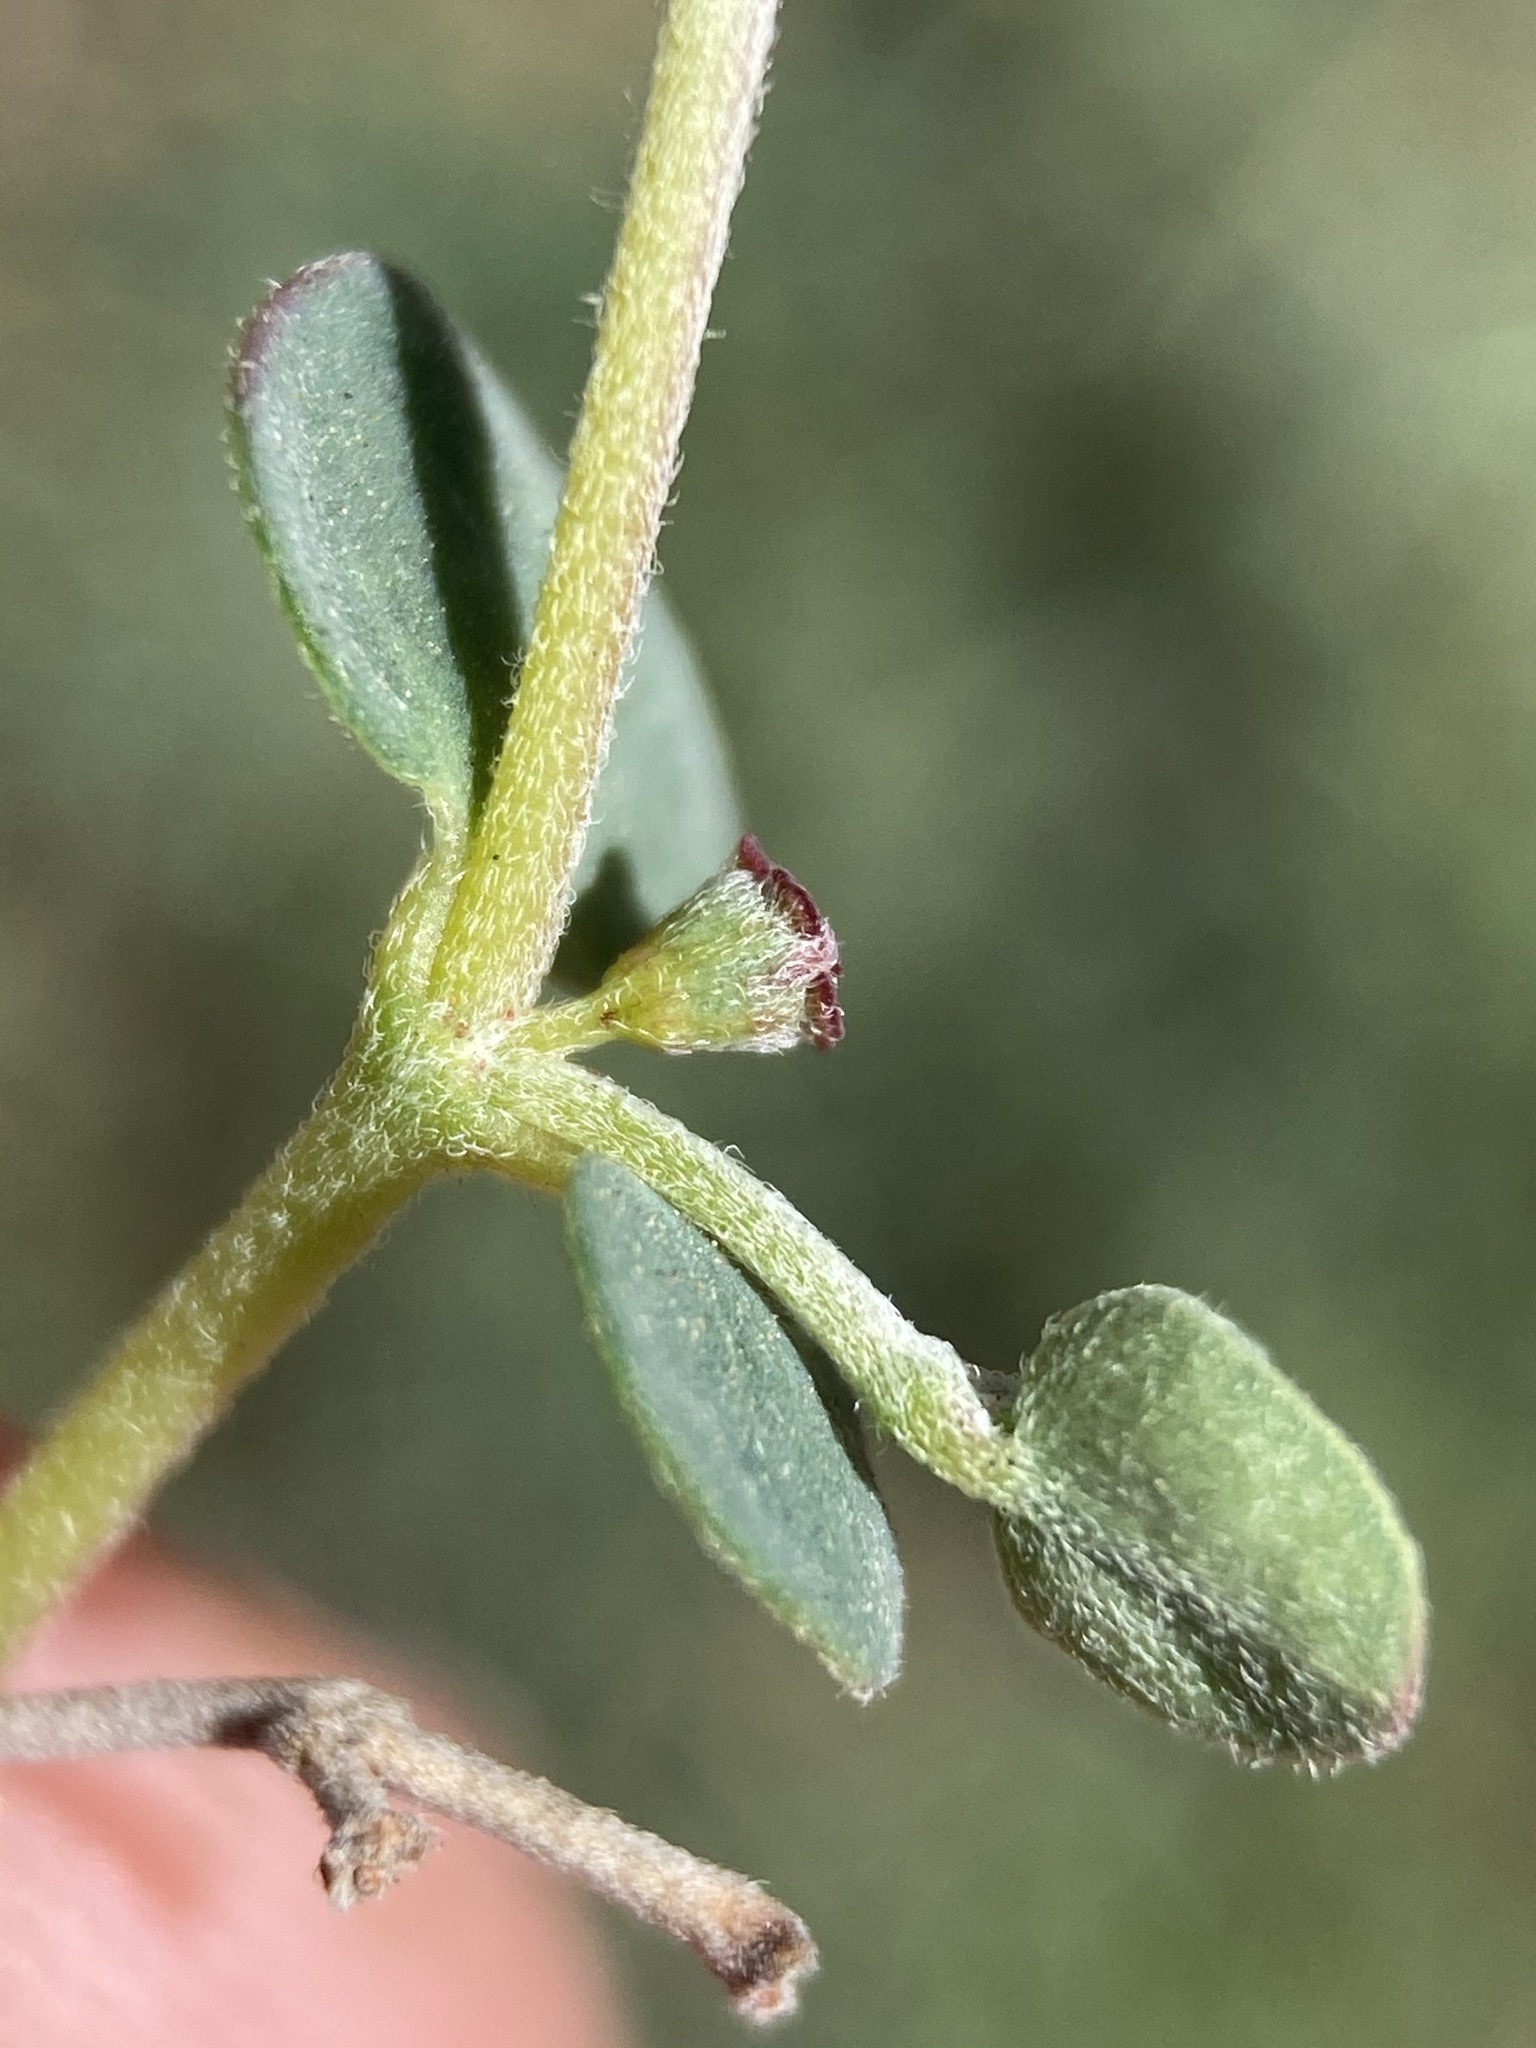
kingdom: Plantae
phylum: Tracheophyta
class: Magnoliopsida
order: Malpighiales
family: Euphorbiaceae
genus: Euphorbia
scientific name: Euphorbia cinerascens
